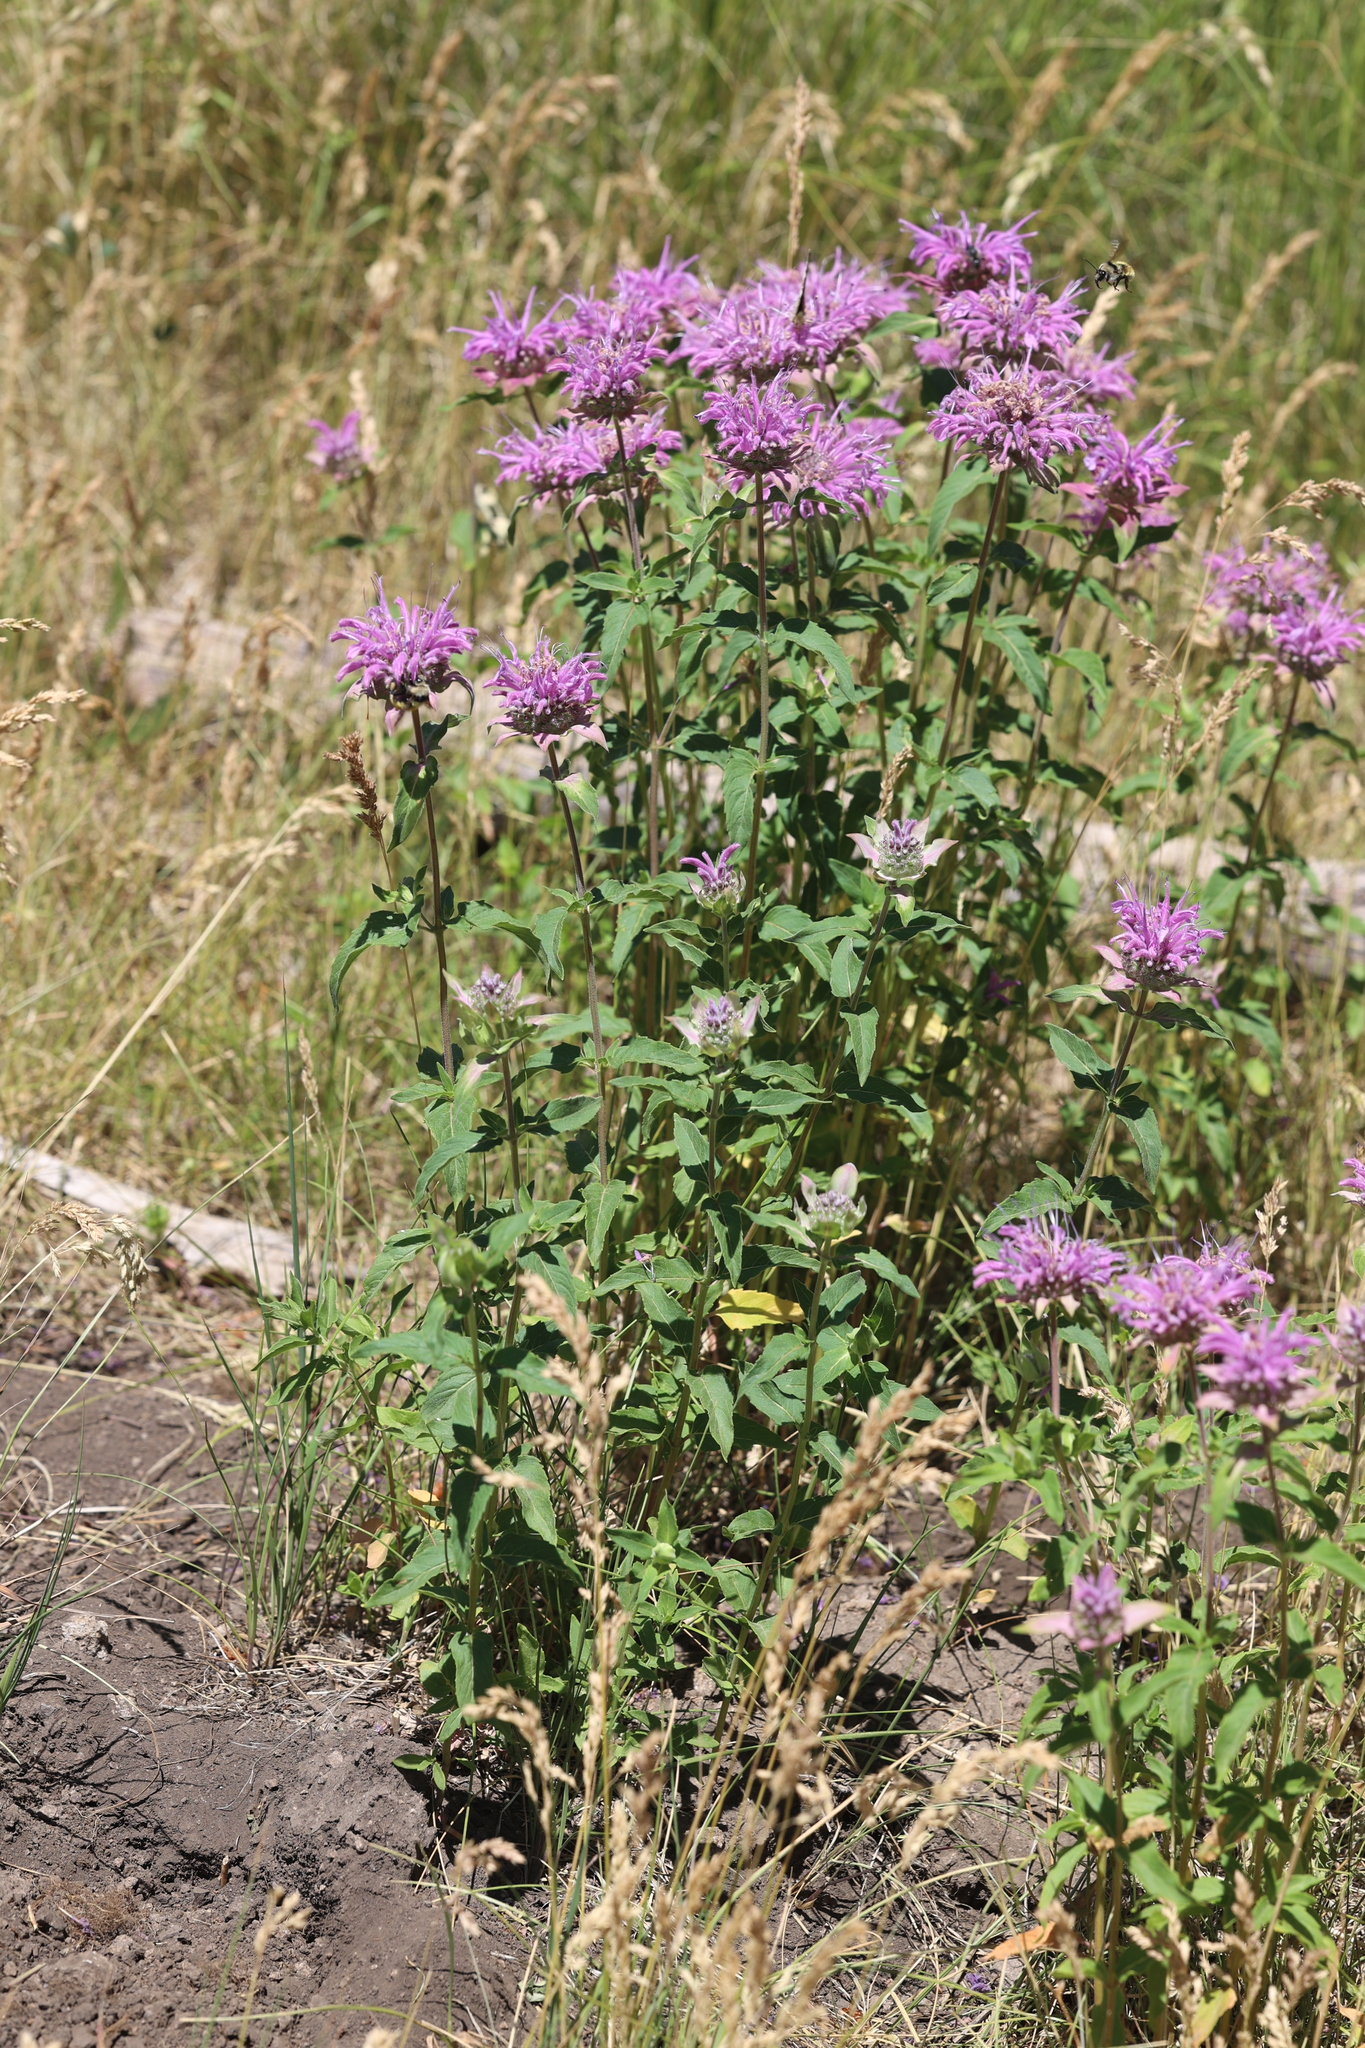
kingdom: Plantae
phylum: Tracheophyta
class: Magnoliopsida
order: Lamiales
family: Lamiaceae
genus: Monarda
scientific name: Monarda fistulosa
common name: Purple beebalm
